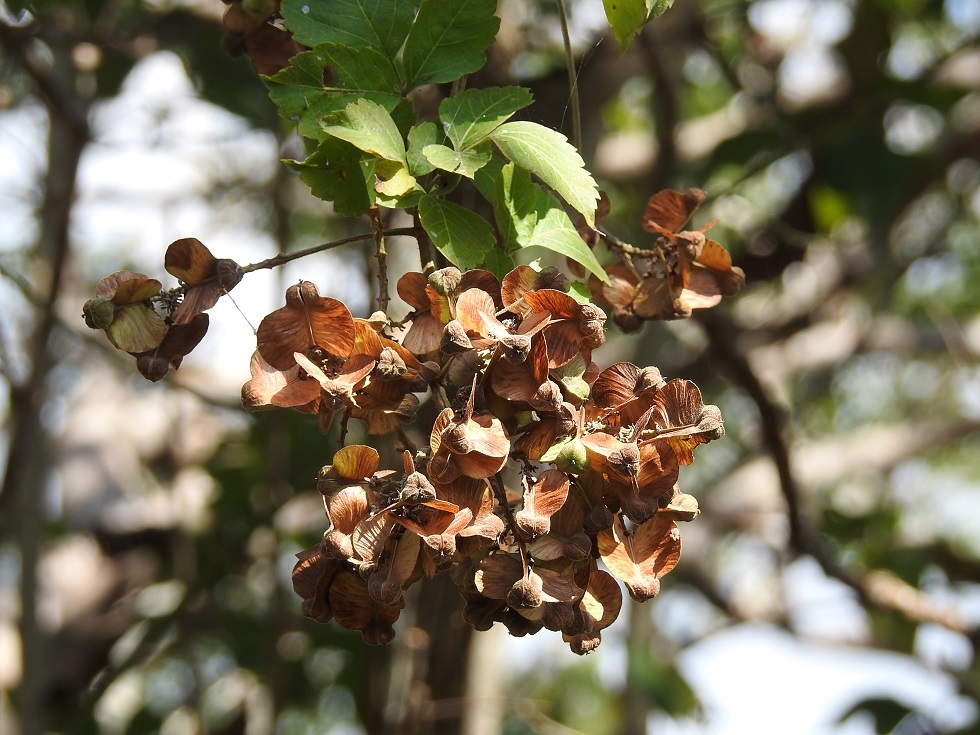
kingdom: Plantae
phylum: Tracheophyta
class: Magnoliopsida
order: Sapindales
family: Sapindaceae
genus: Serjania
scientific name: Serjania triquetra
